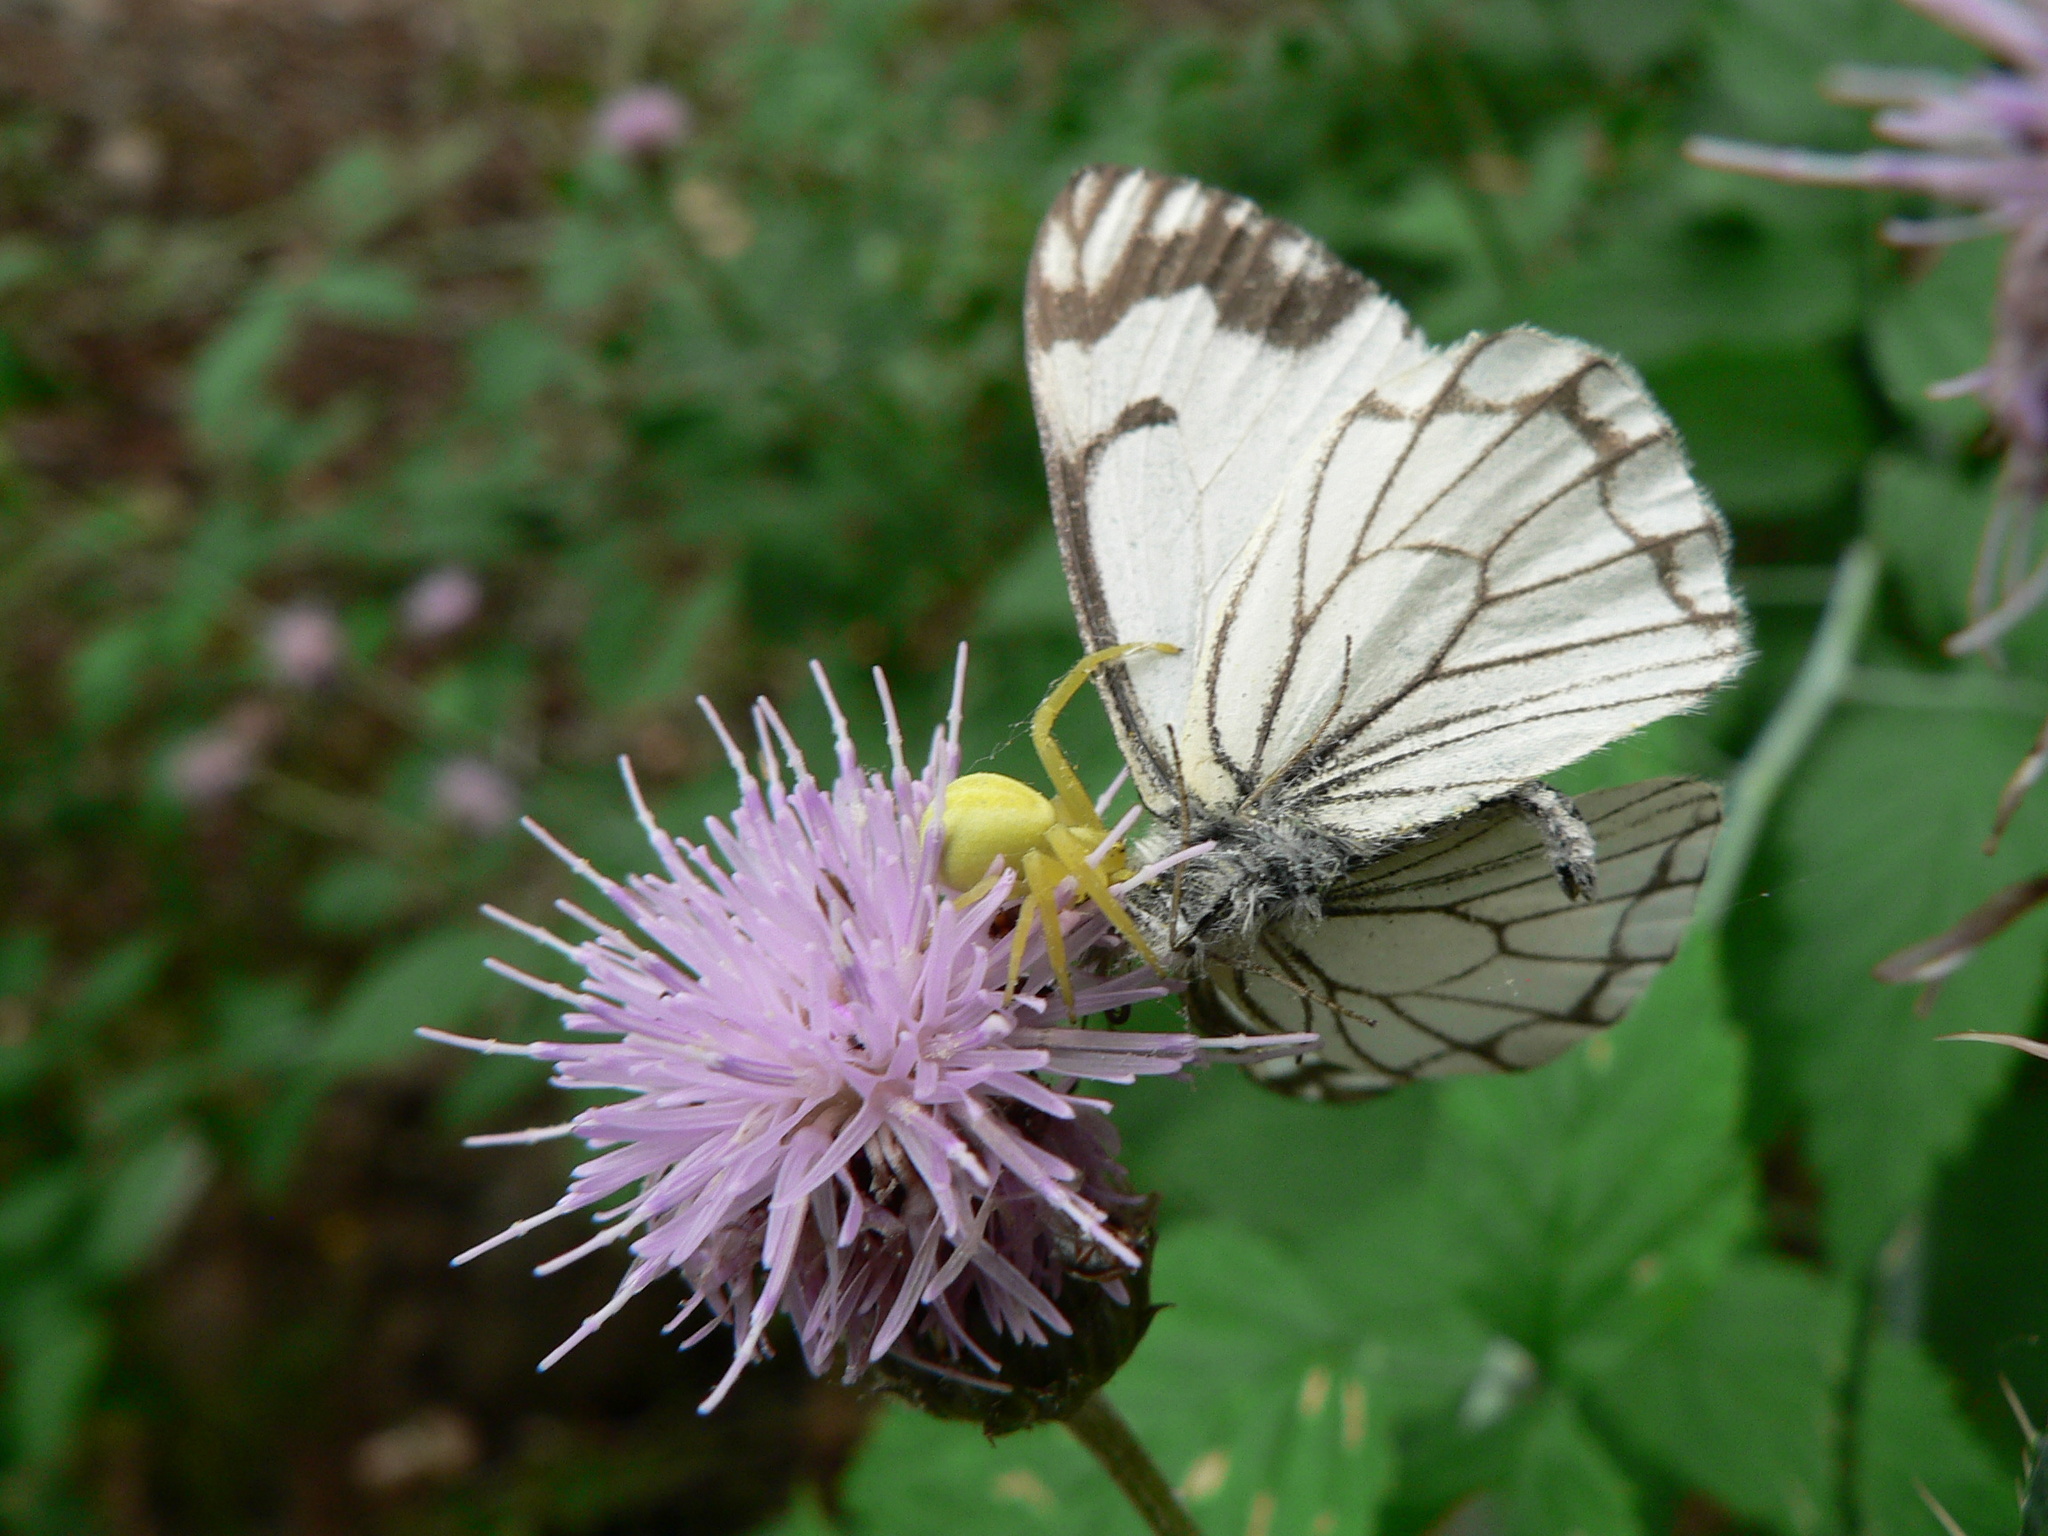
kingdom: Animalia
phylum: Arthropoda
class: Insecta
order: Lepidoptera
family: Pieridae
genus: Neophasia
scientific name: Neophasia menapia
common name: Pine white
